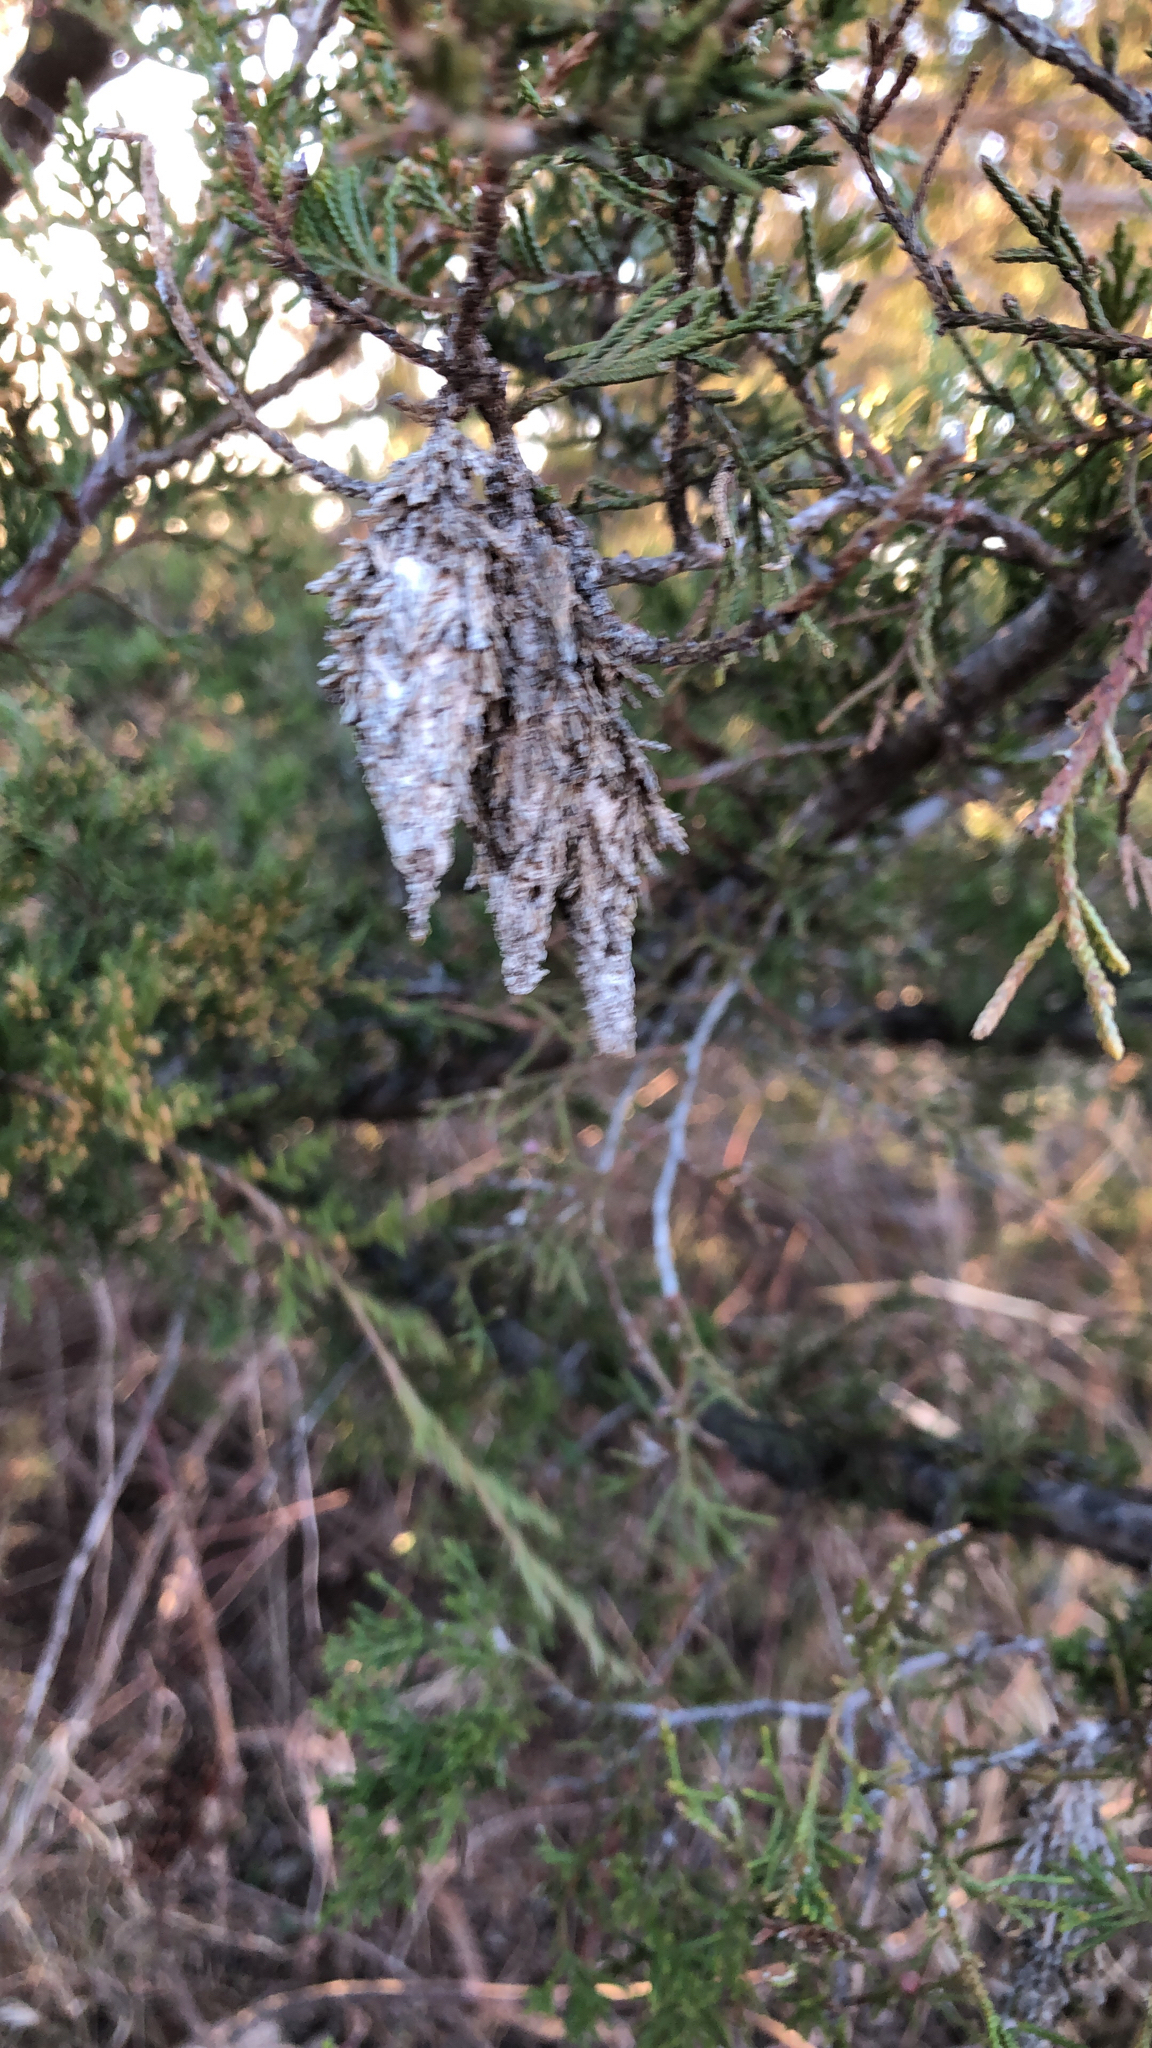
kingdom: Animalia
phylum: Arthropoda
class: Insecta
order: Lepidoptera
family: Psychidae
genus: Thyridopteryx
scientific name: Thyridopteryx ephemeraeformis
